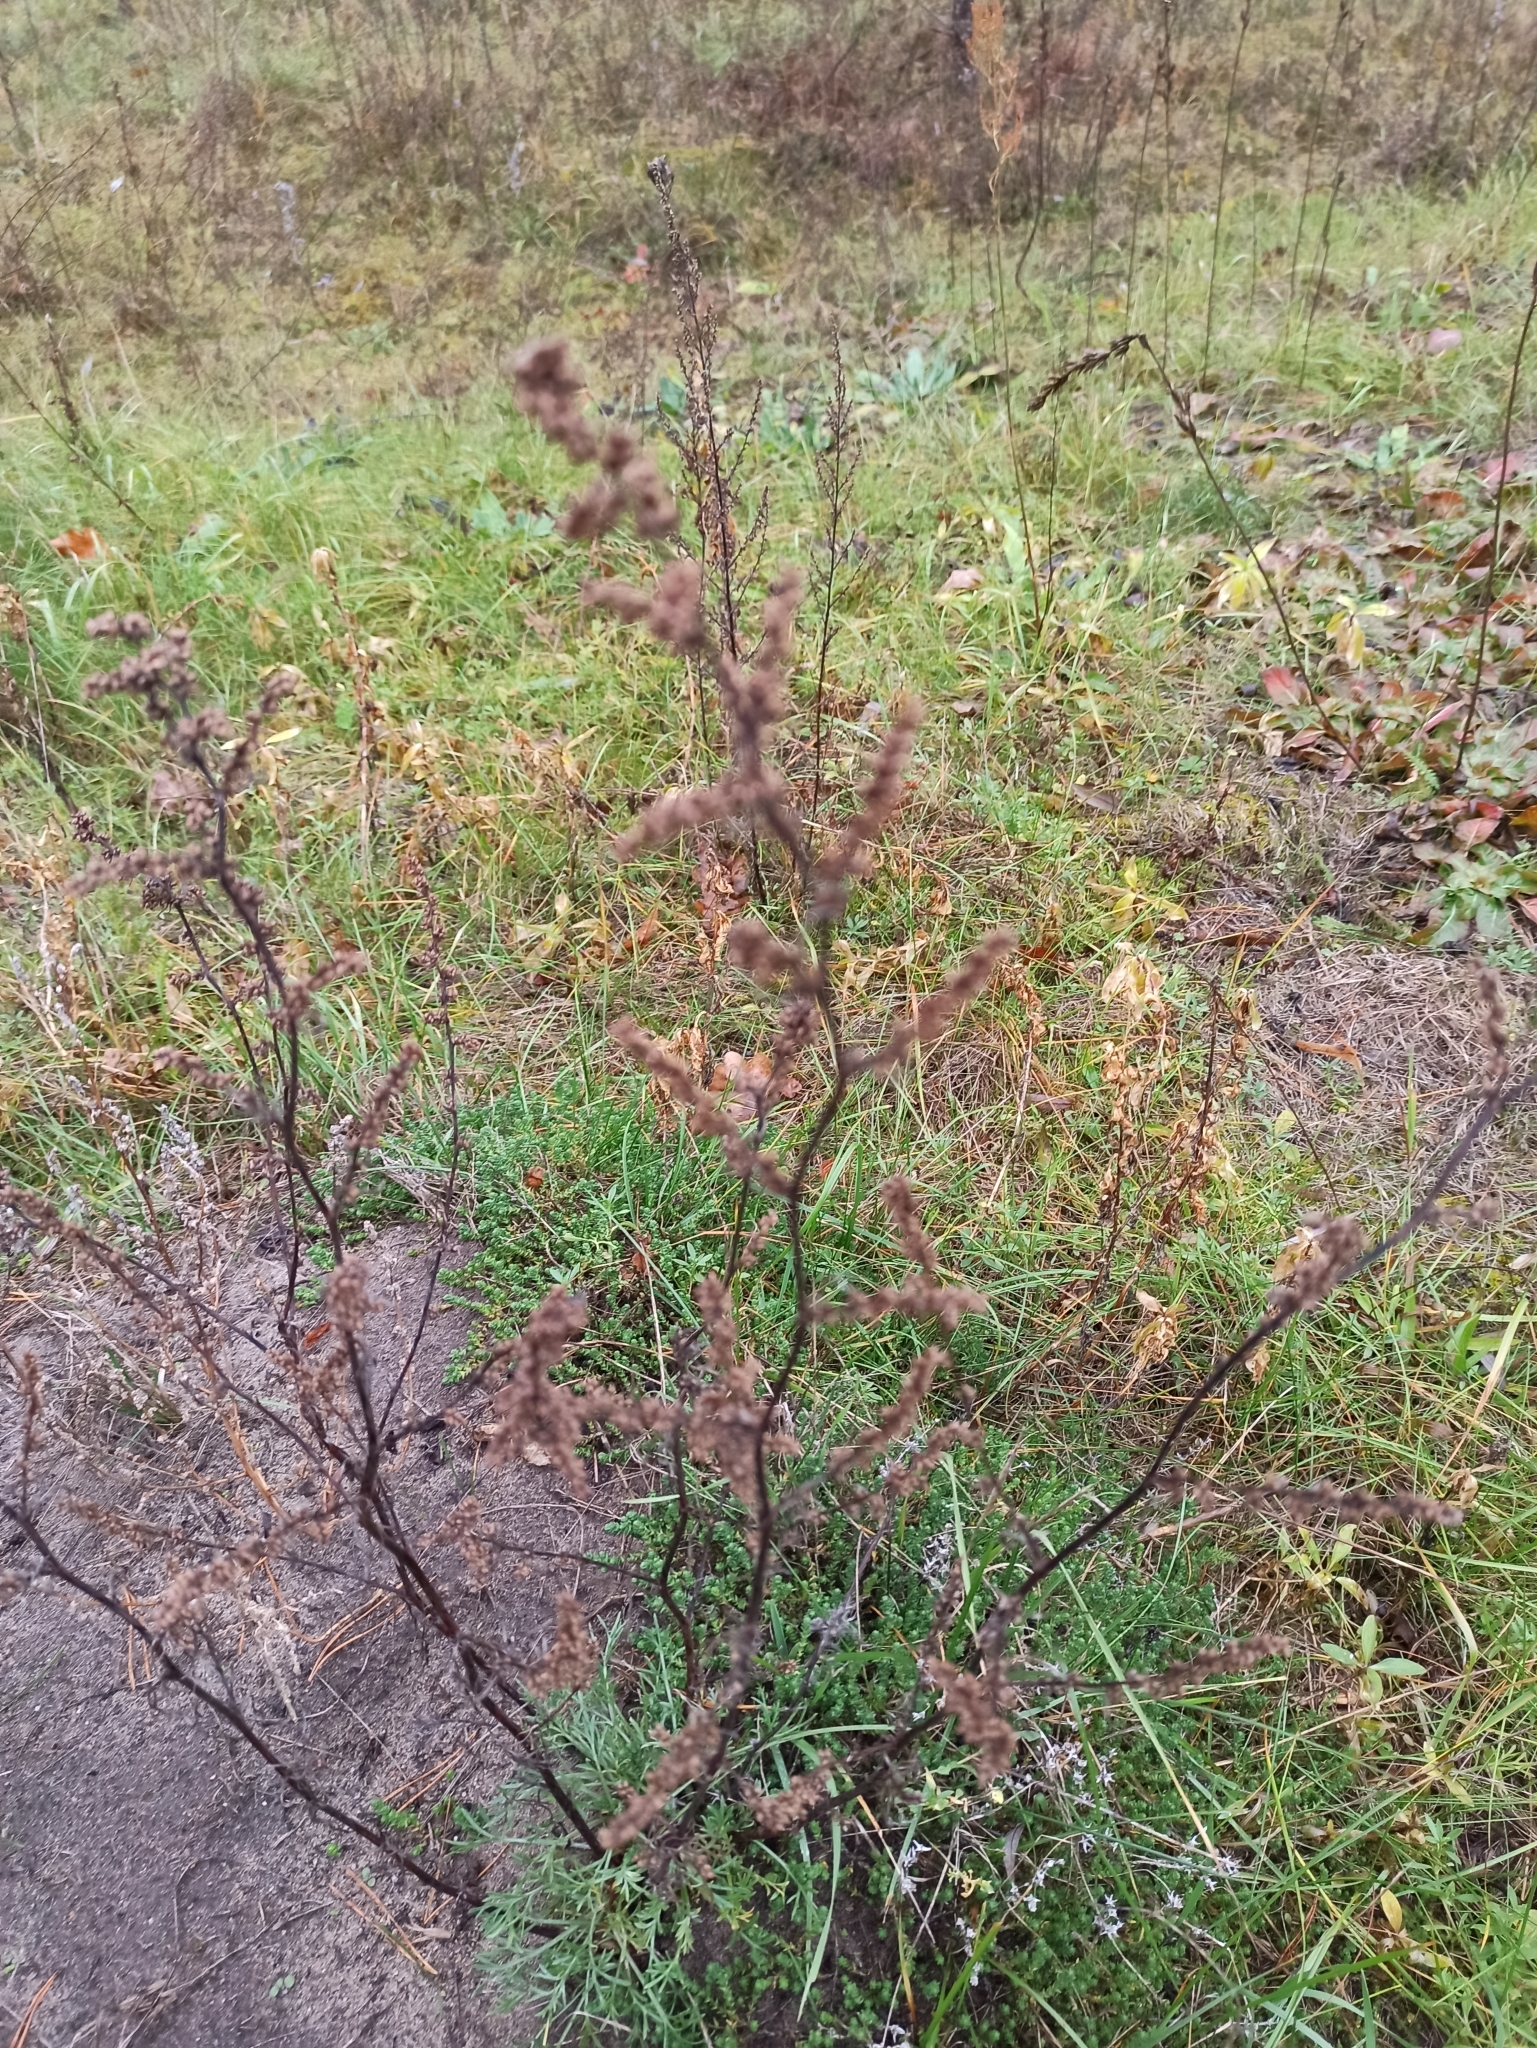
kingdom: Plantae
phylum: Tracheophyta
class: Magnoliopsida
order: Asterales
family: Asteraceae
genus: Artemisia
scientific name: Artemisia campestris
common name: Field wormwood
